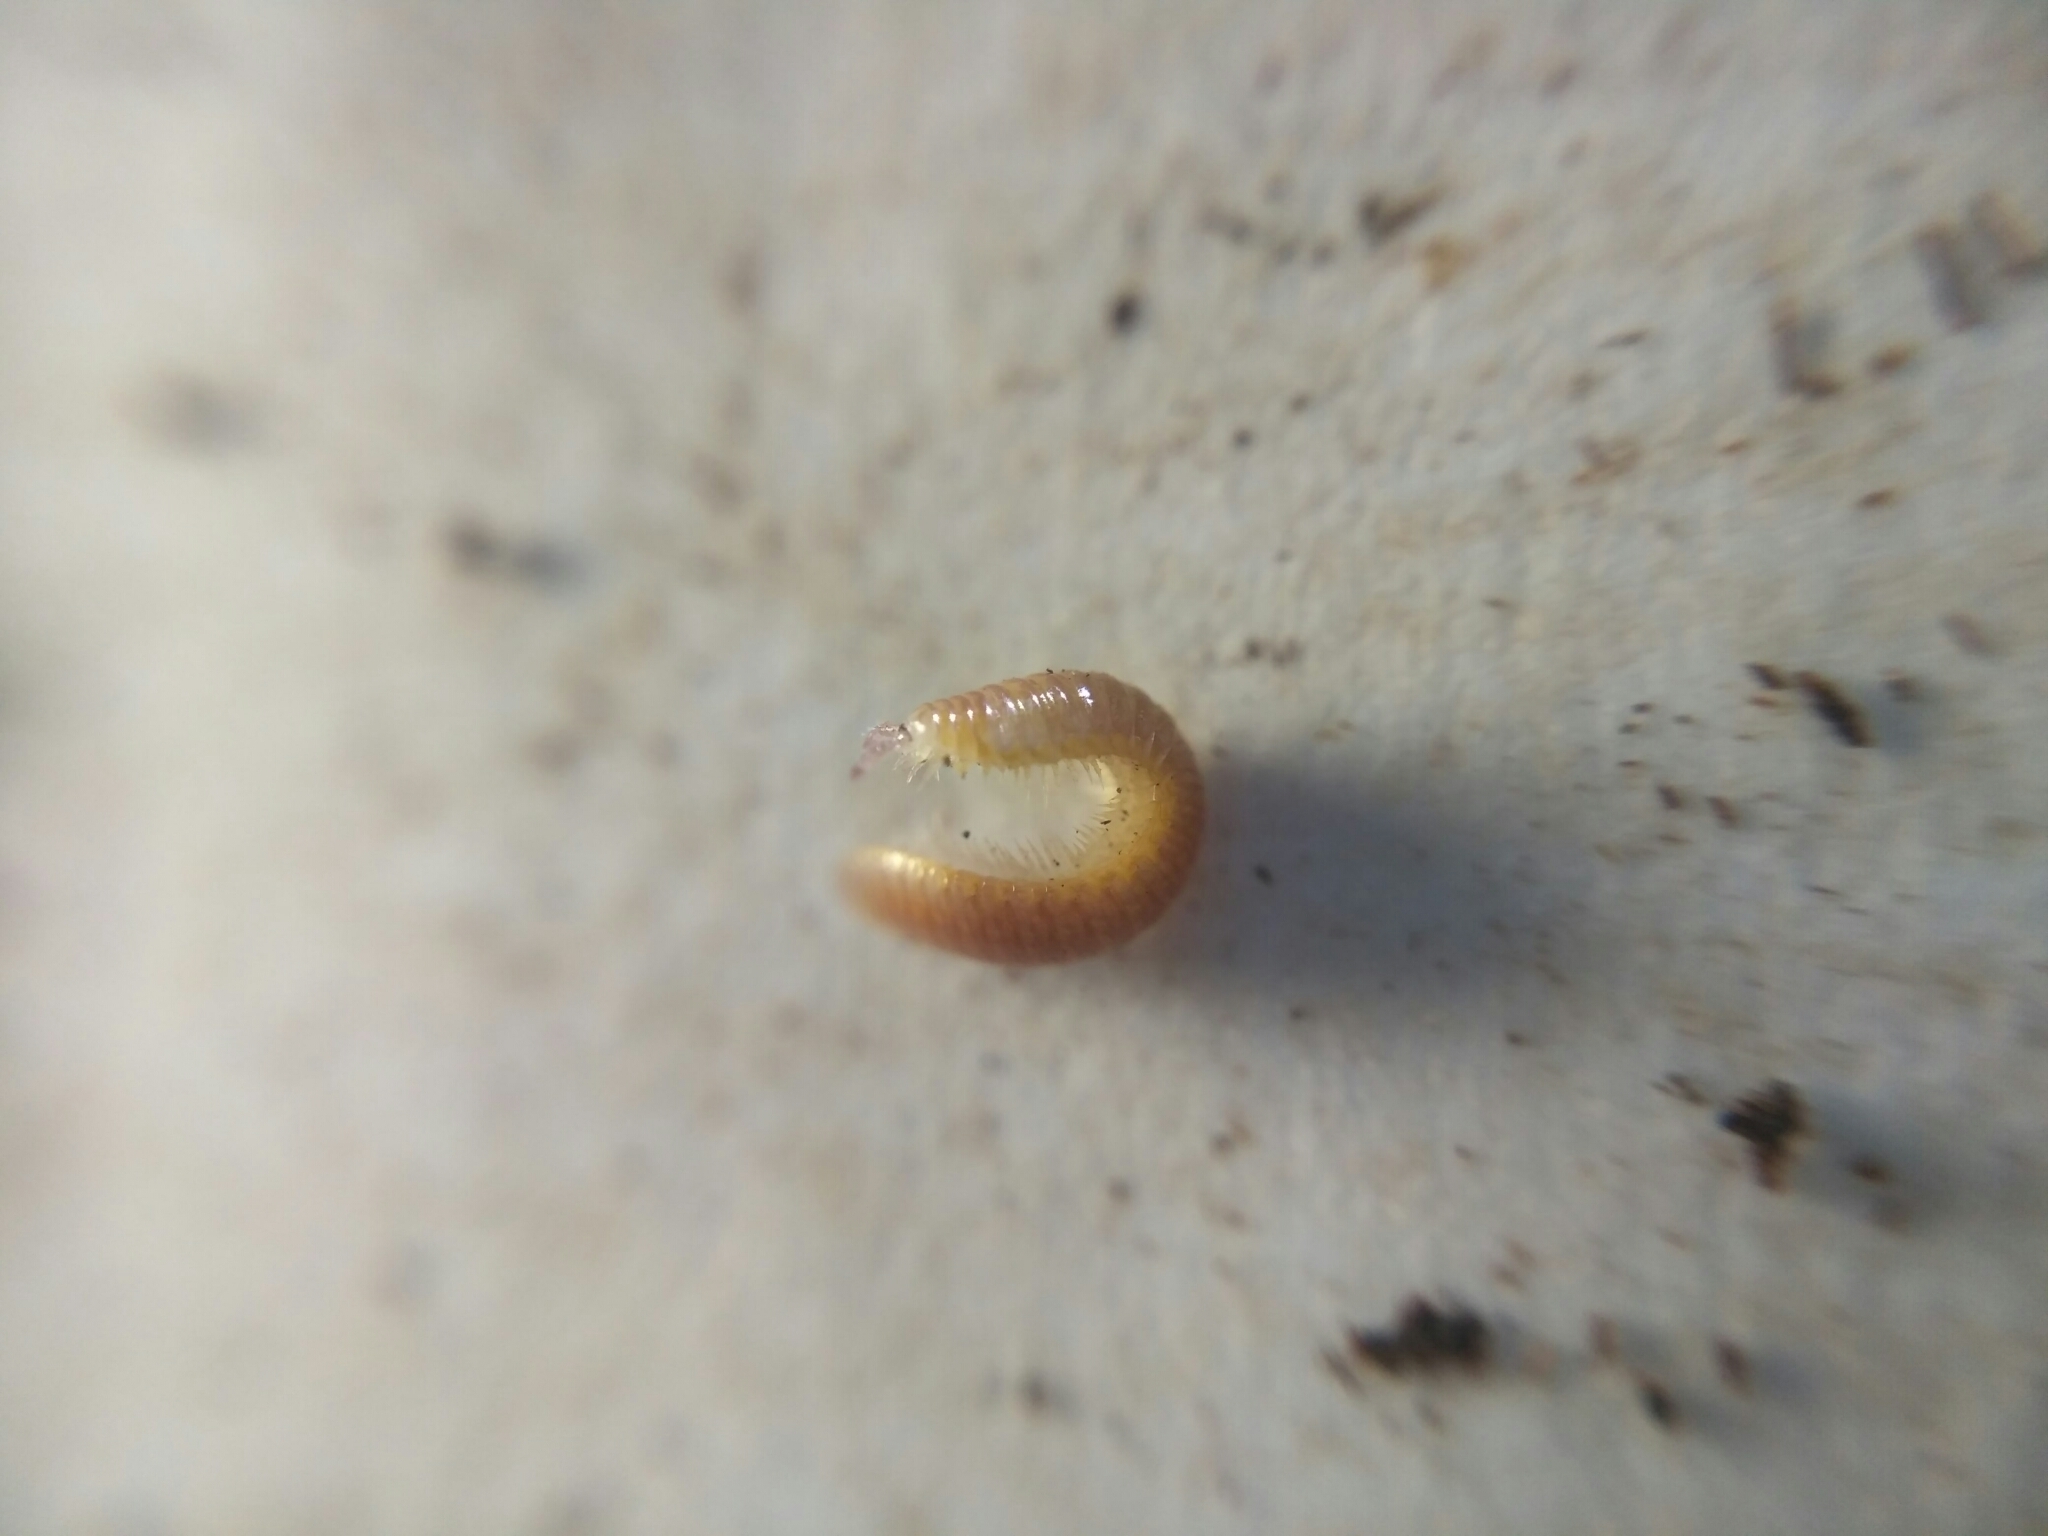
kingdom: Animalia
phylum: Arthropoda
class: Diplopoda
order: Polyzoniida
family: Polyzoniidae
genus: Polyzonium
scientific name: Polyzonium germanicum
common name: Boring millipede
